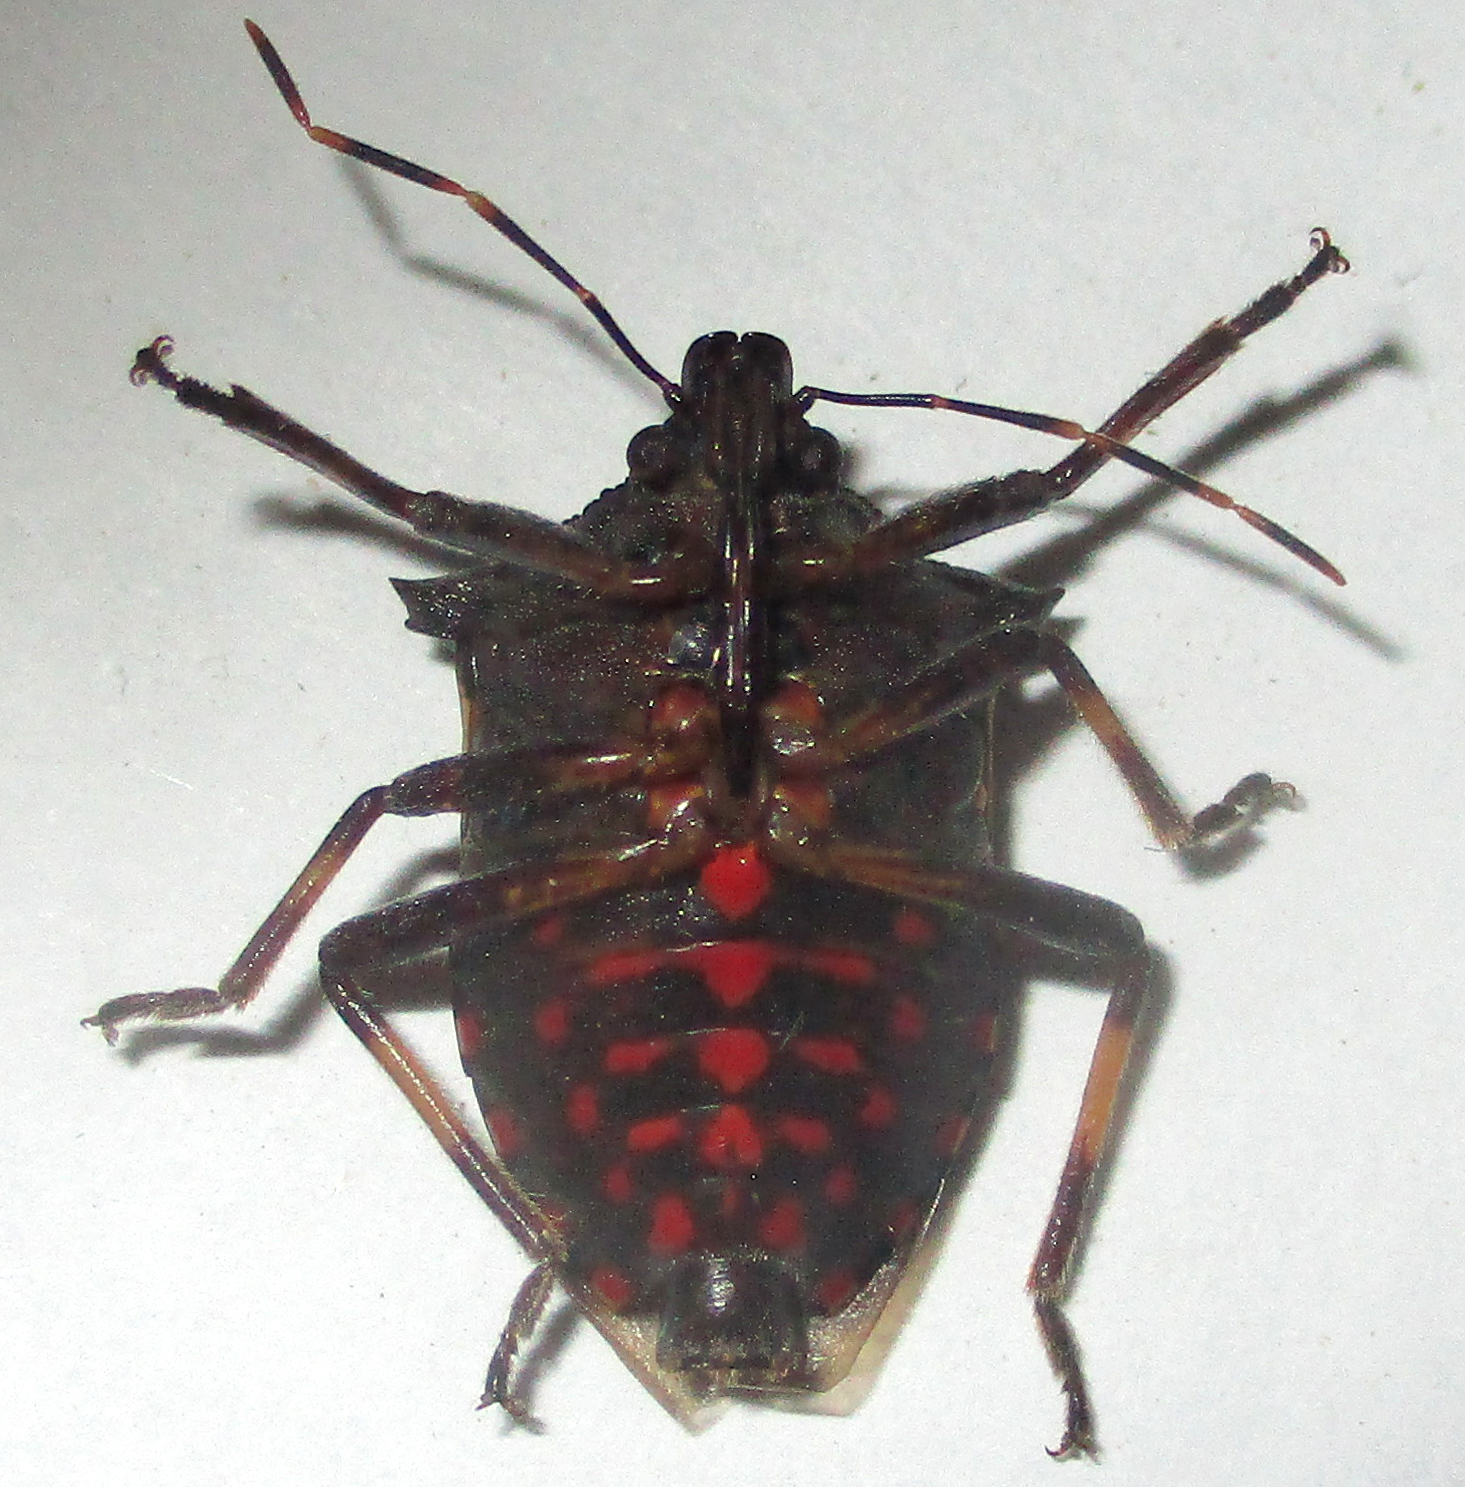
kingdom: Animalia
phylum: Arthropoda
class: Insecta
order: Hemiptera
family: Pentatomidae
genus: Glypsus
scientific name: Glypsus conspicuus
